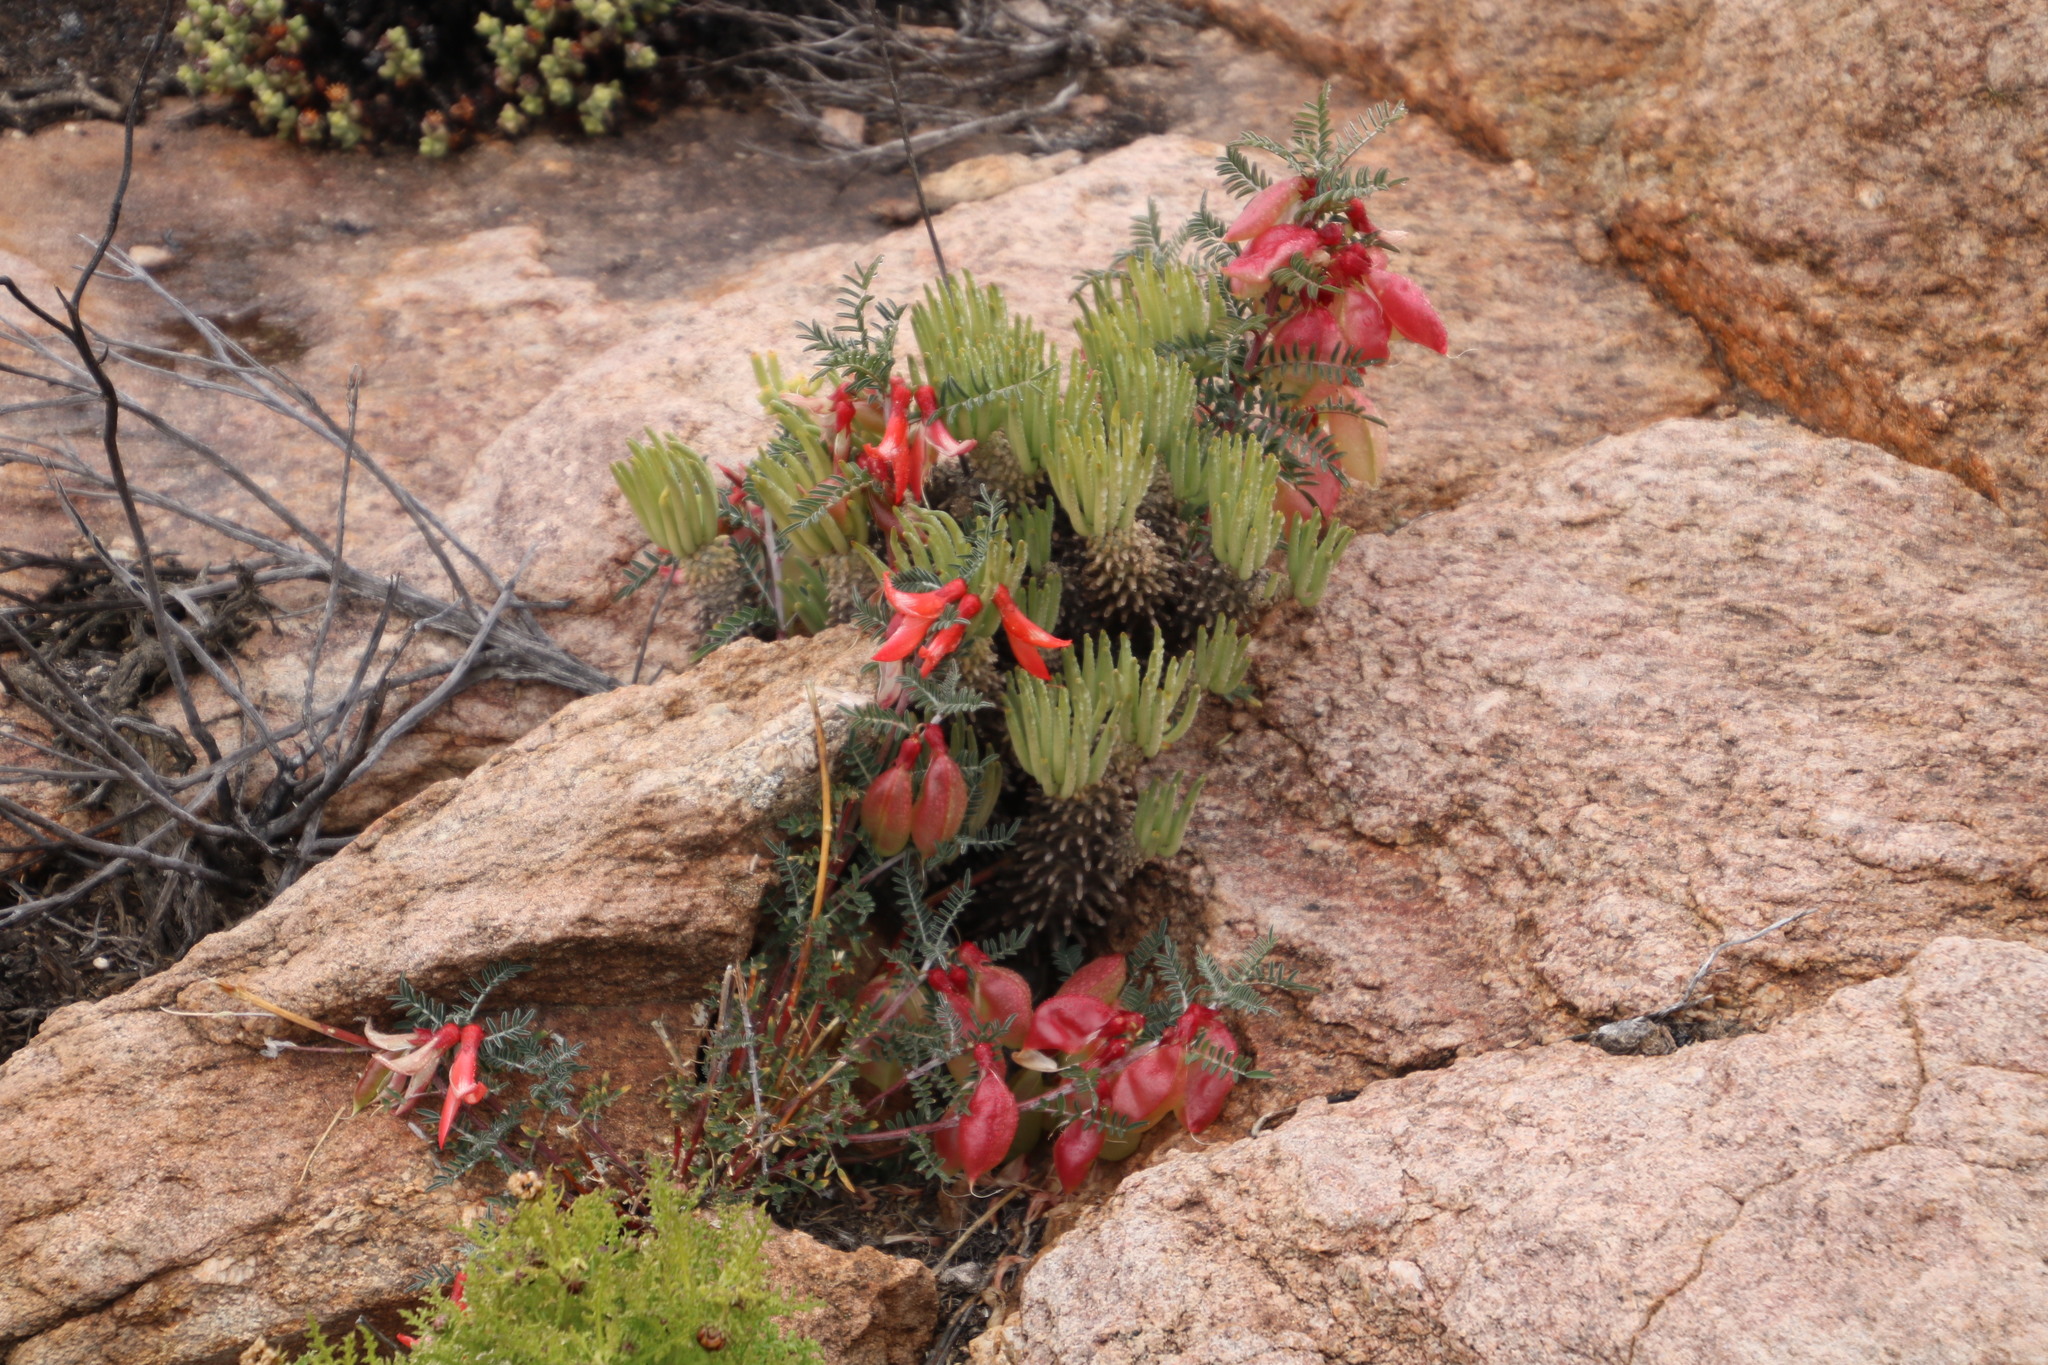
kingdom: Plantae
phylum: Tracheophyta
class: Magnoliopsida
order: Fabales
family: Fabaceae
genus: Lessertia
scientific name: Lessertia frutescens
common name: Balloon-pea
